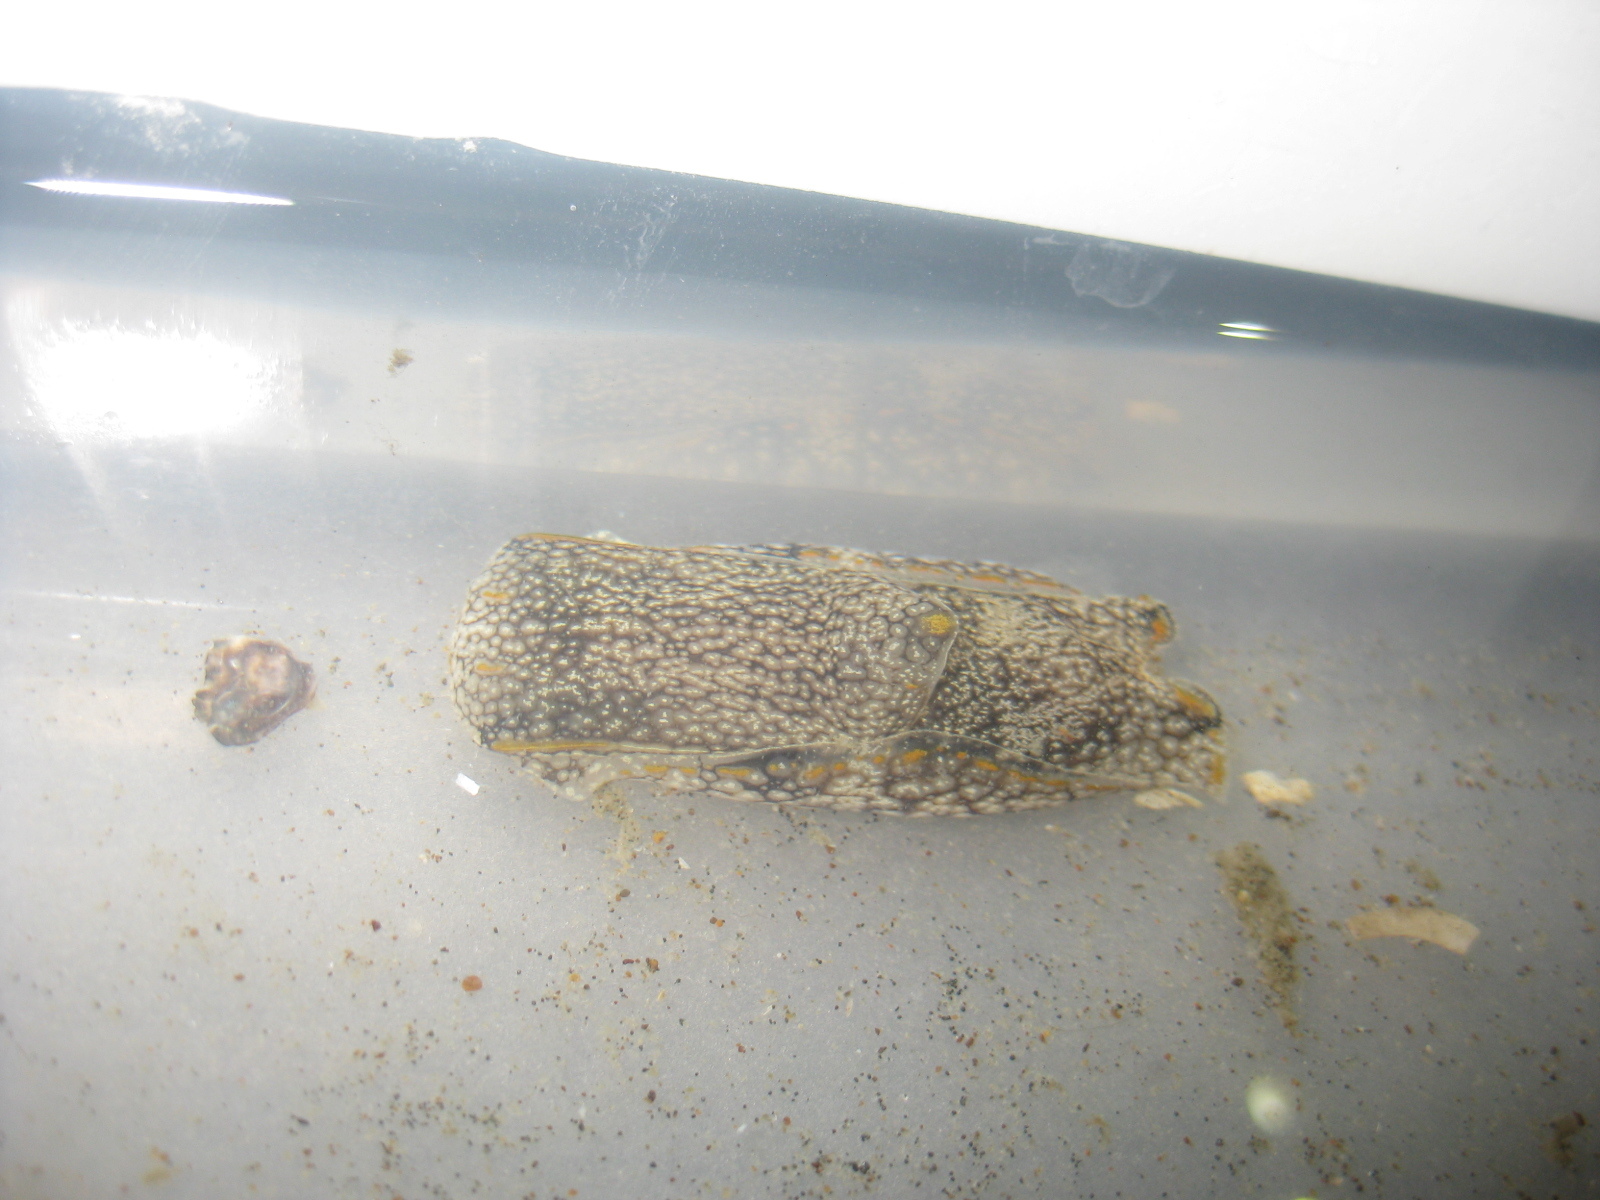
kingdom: Animalia
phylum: Mollusca
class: Gastropoda
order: Cephalaspidea
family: Aglajidae
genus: Philinopsis
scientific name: Philinopsis taronga
